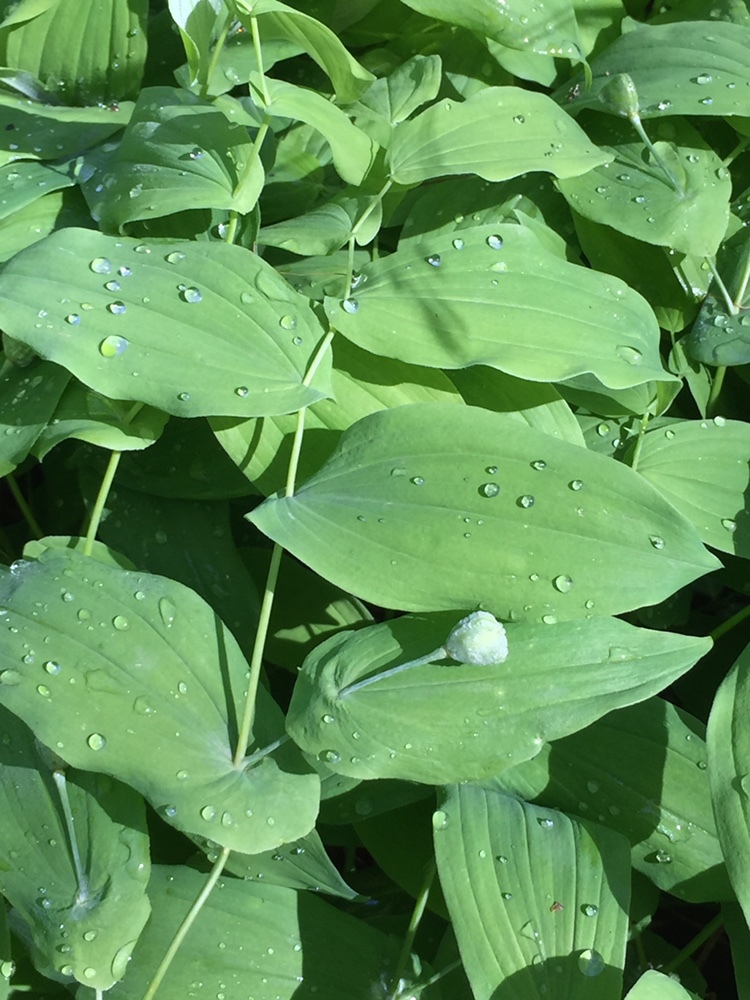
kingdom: Plantae
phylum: Tracheophyta
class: Liliopsida
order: Liliales
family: Colchicaceae
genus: Uvularia
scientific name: Uvularia grandiflora
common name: Bellwort
